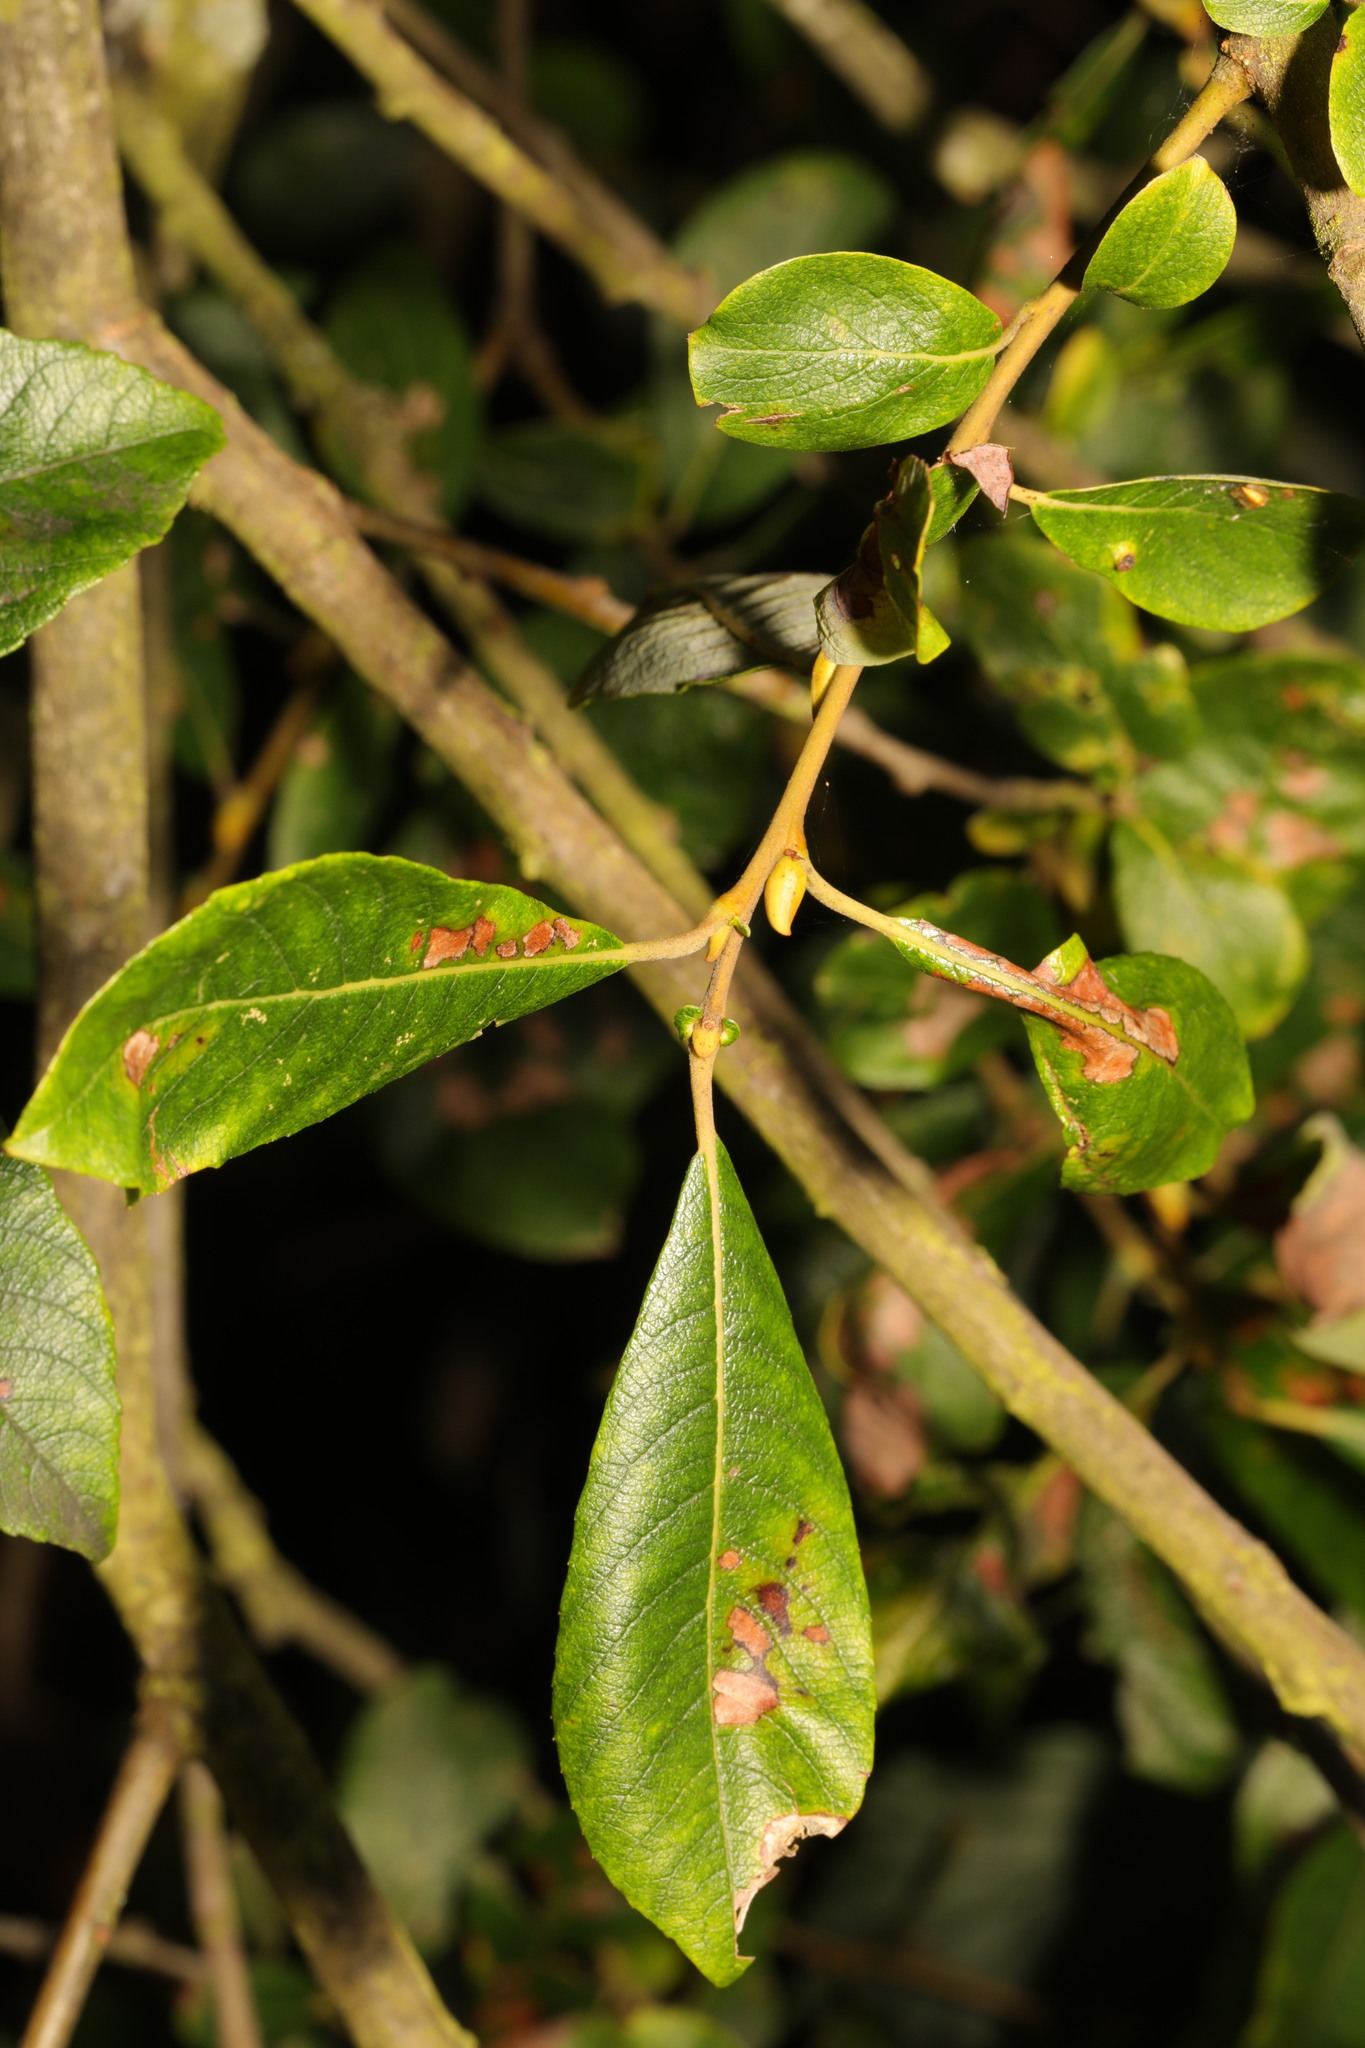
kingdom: Plantae
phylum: Tracheophyta
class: Magnoliopsida
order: Malpighiales
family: Salicaceae
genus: Salix
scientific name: Salix cinerea
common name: Common sallow
